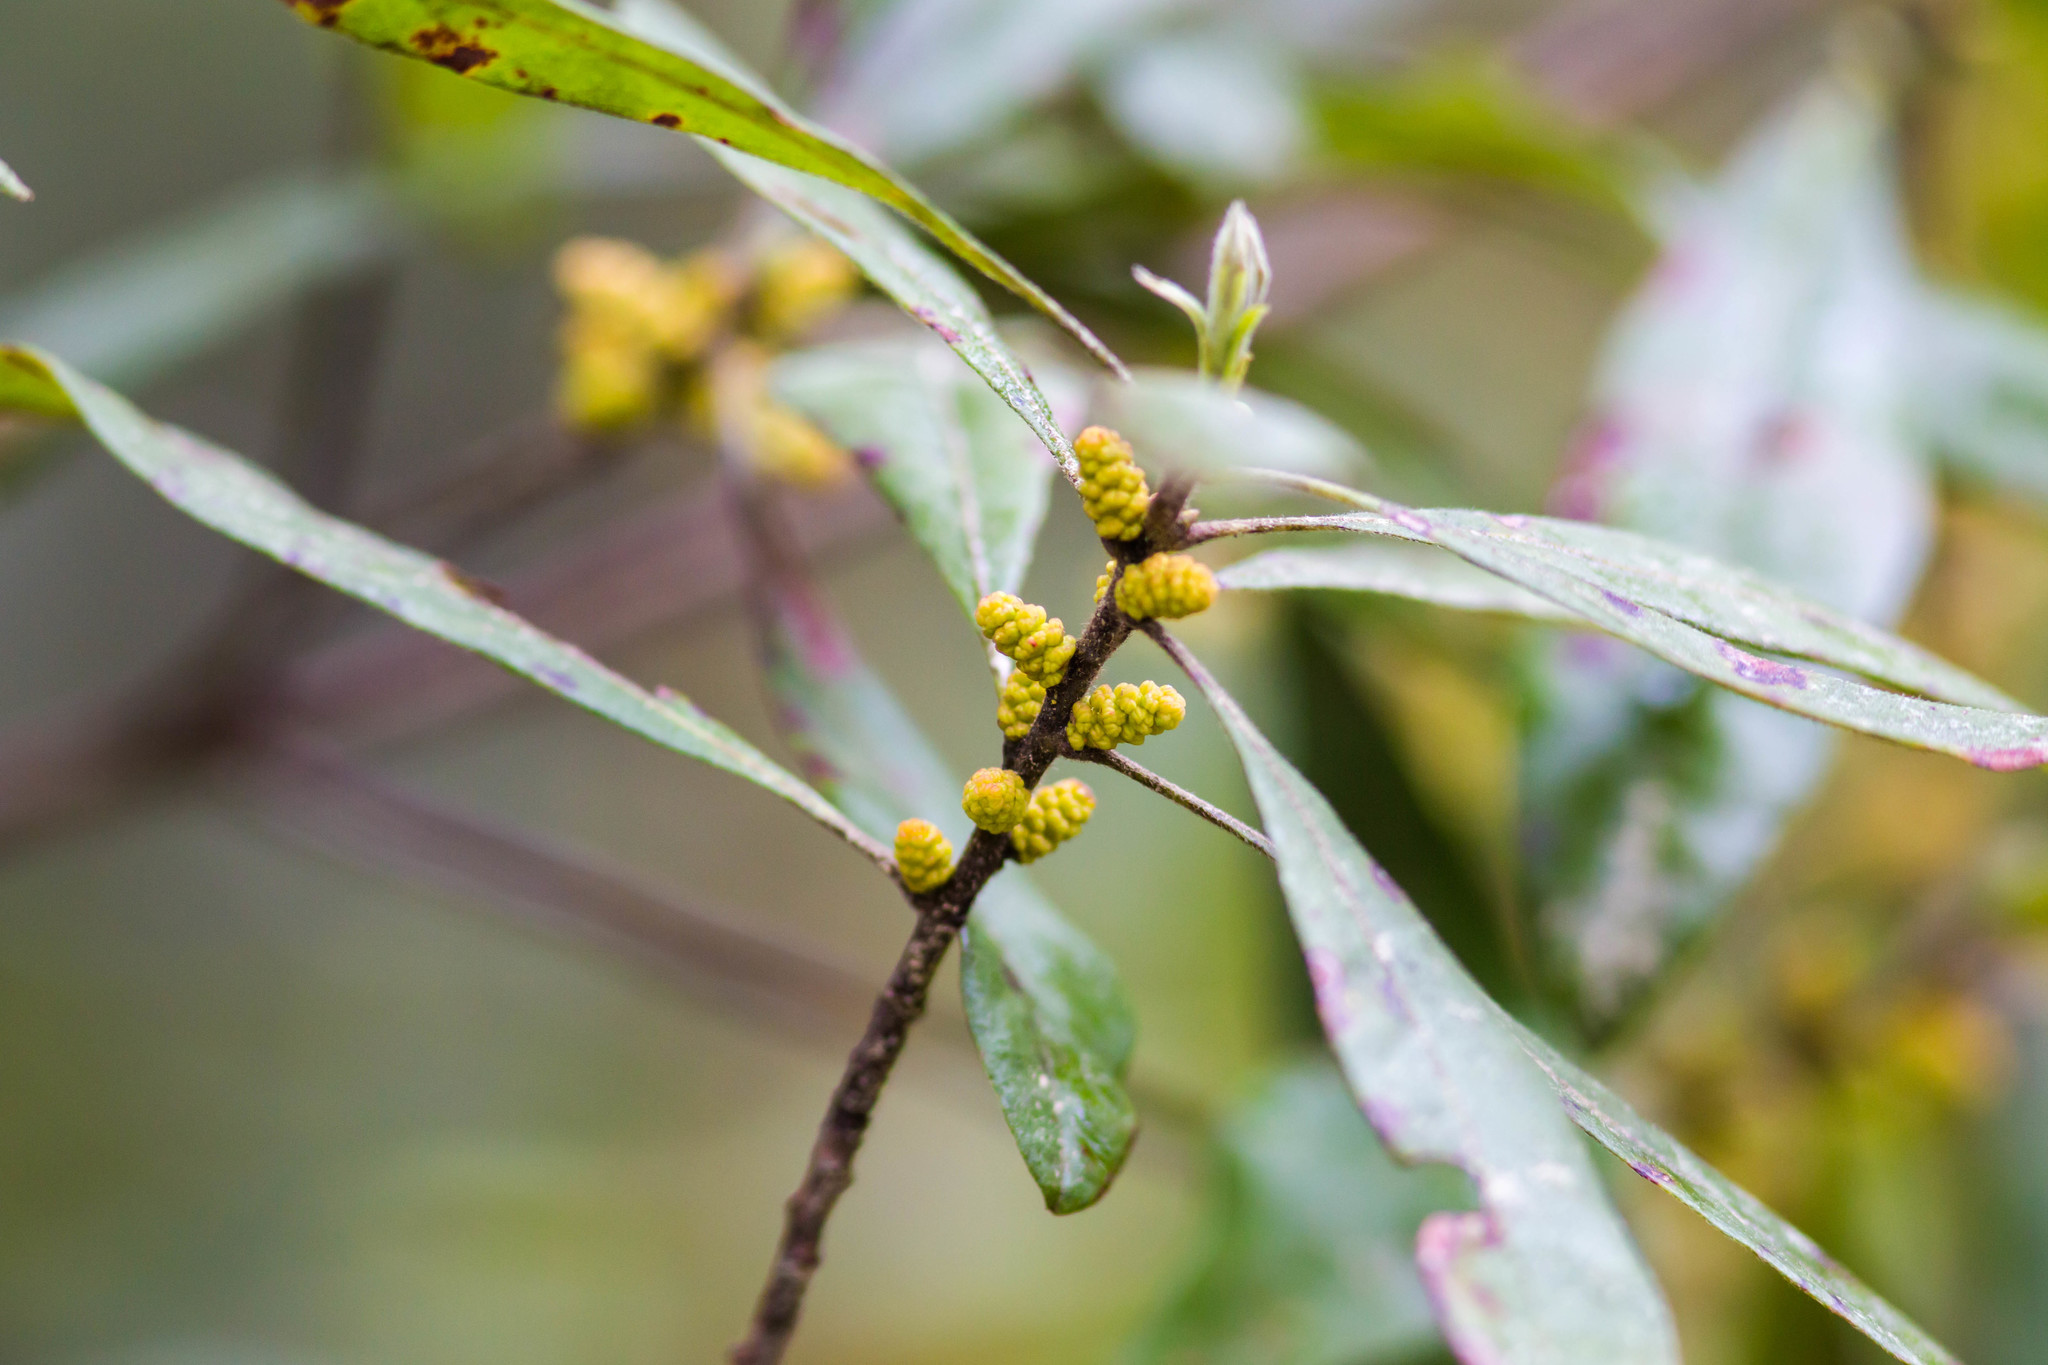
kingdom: Plantae
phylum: Tracheophyta
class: Magnoliopsida
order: Fagales
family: Myricaceae
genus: Morella
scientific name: Morella cerifera
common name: Wax myrtle
